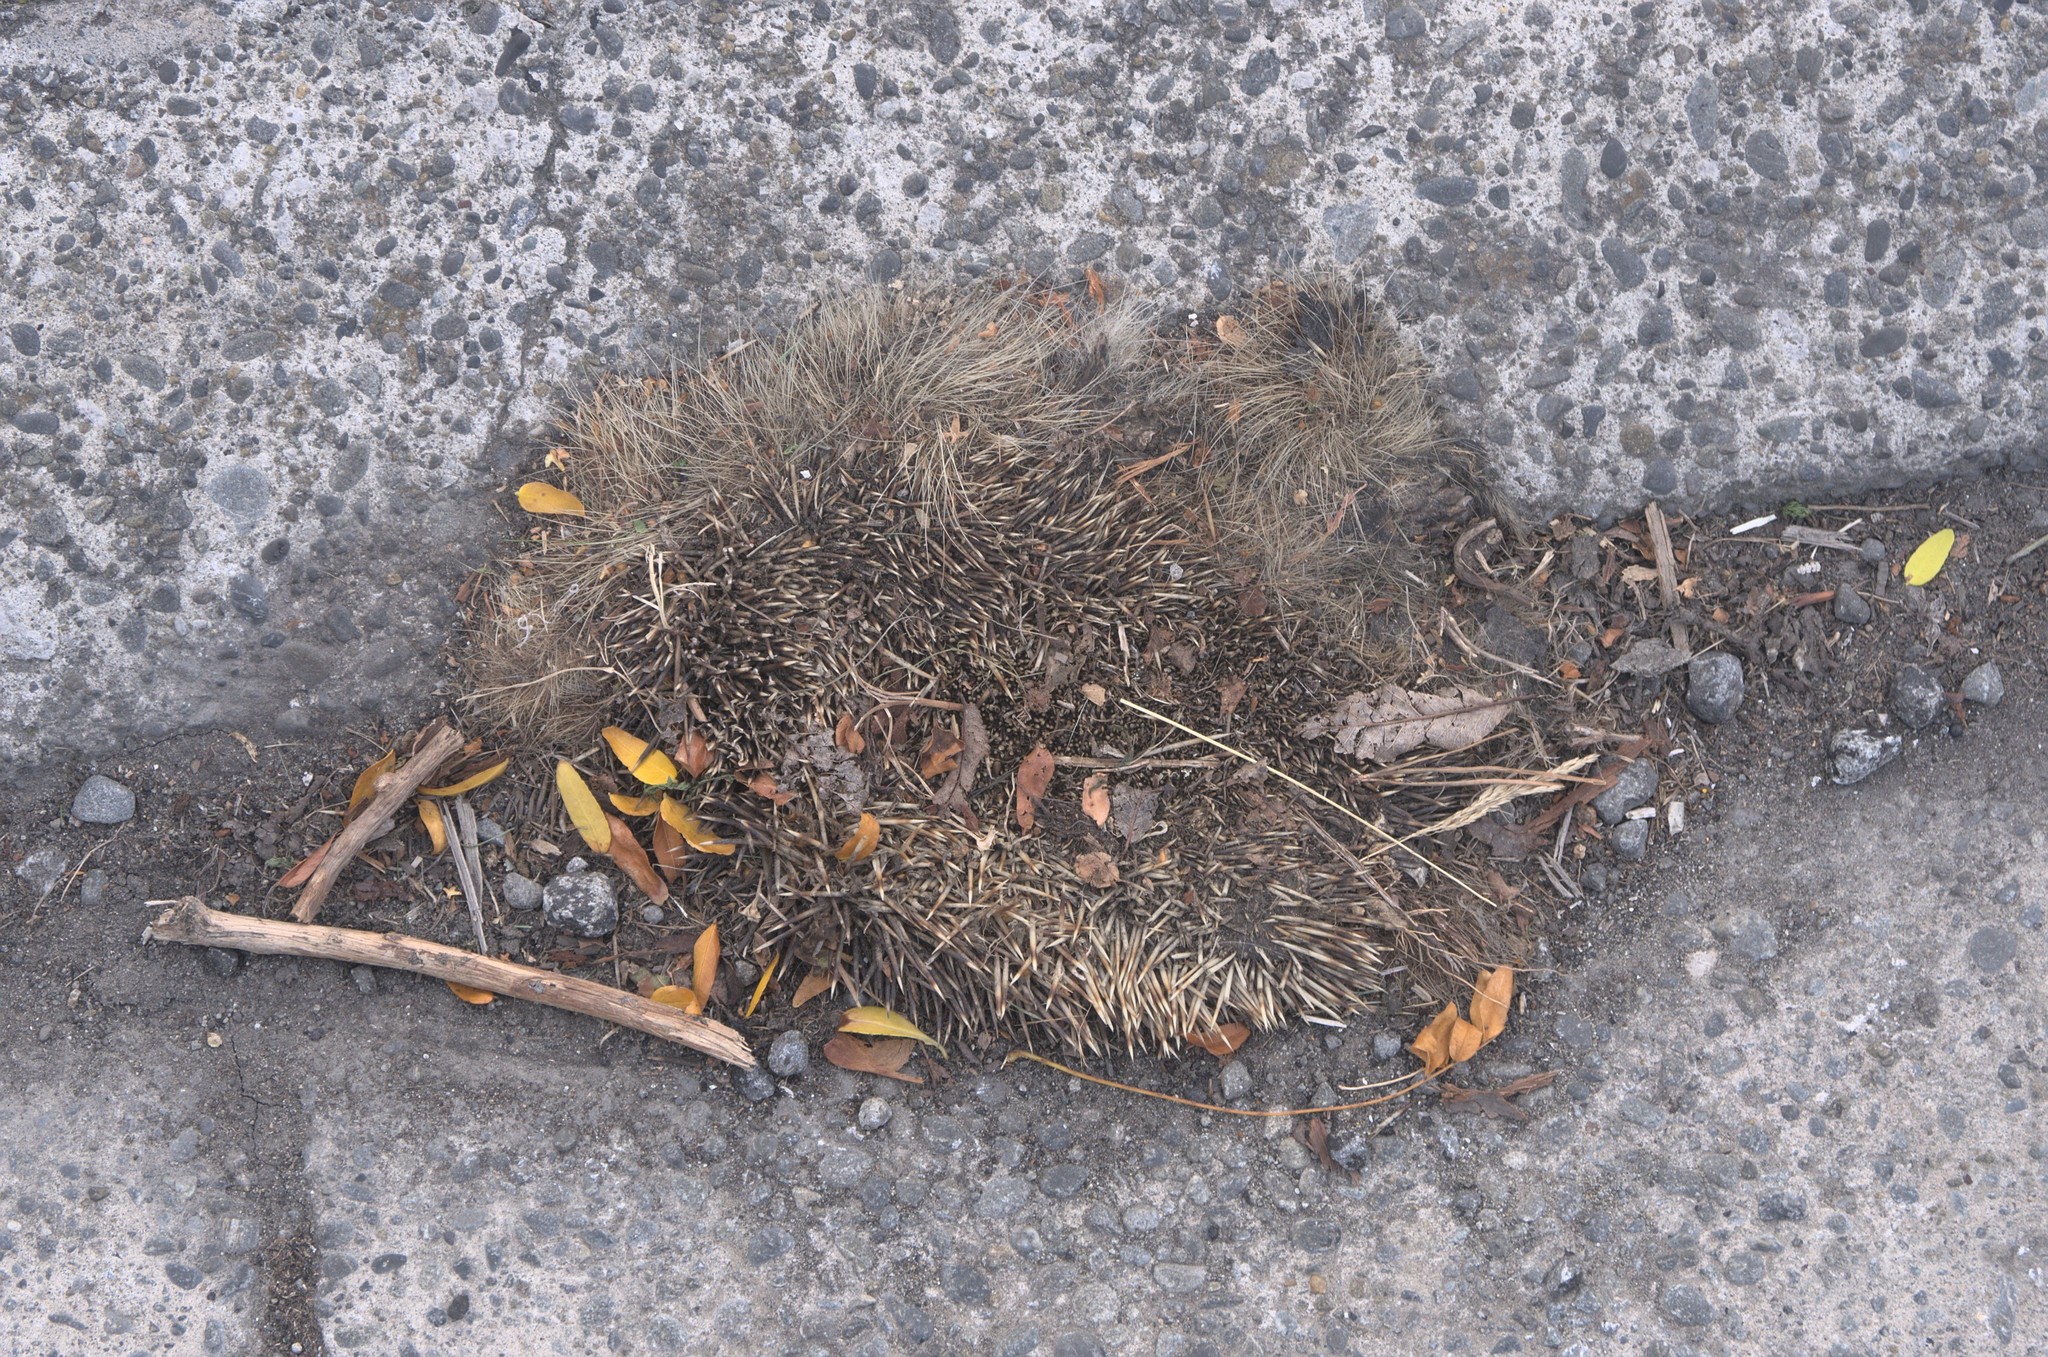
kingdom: Animalia
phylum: Chordata
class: Mammalia
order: Erinaceomorpha
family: Erinaceidae
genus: Erinaceus
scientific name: Erinaceus europaeus
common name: West european hedgehog
